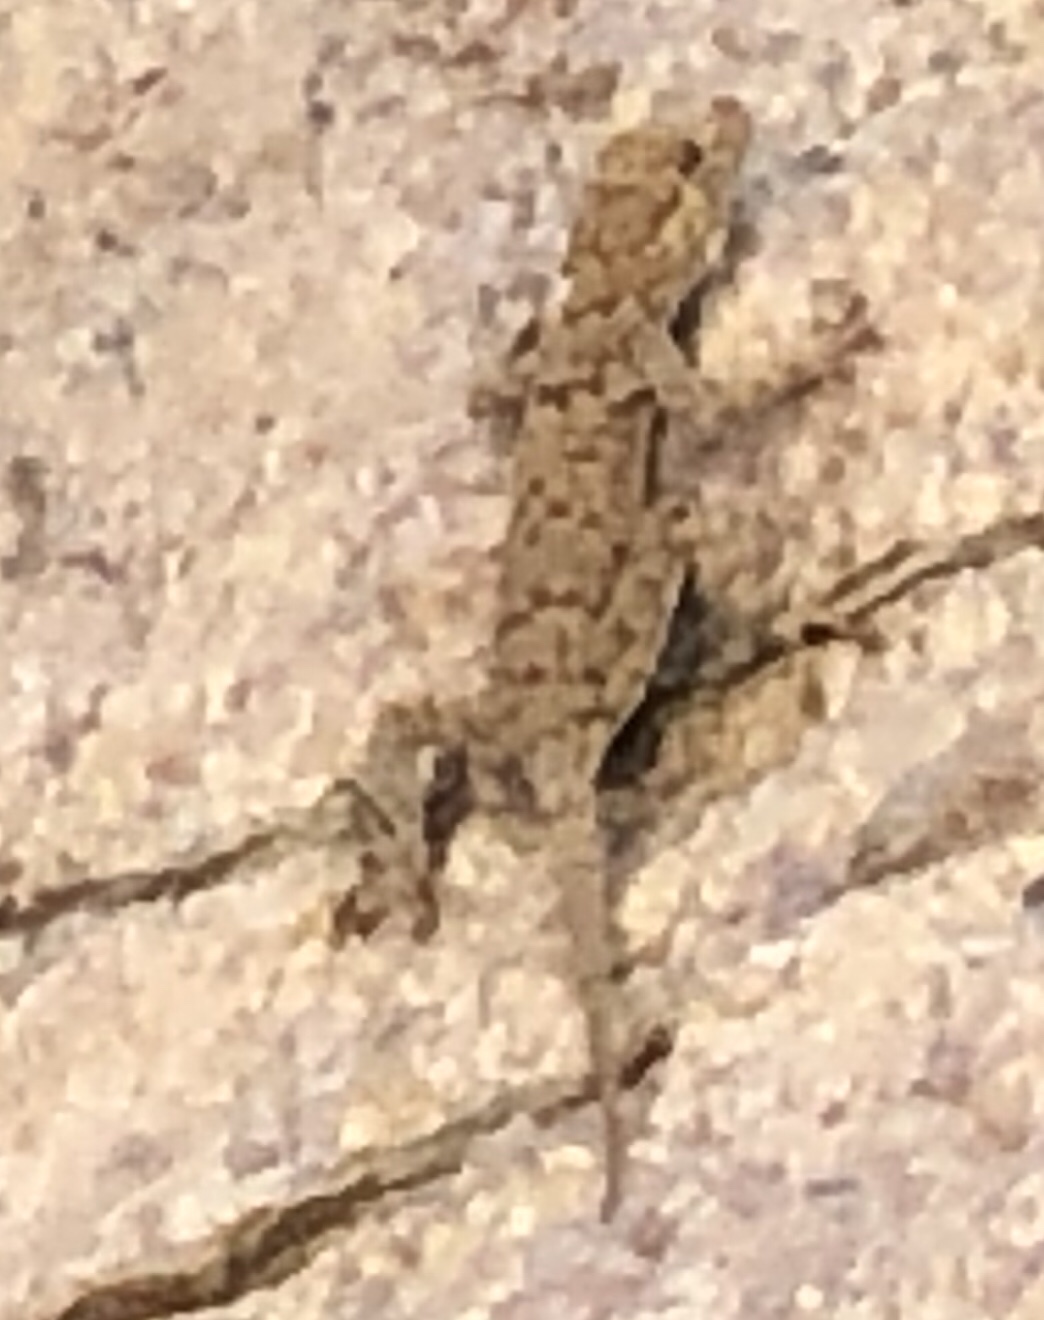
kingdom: Animalia
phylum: Chordata
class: Squamata
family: Gekkonidae
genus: Rhoptropus
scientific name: Rhoptropus bradfieldi
